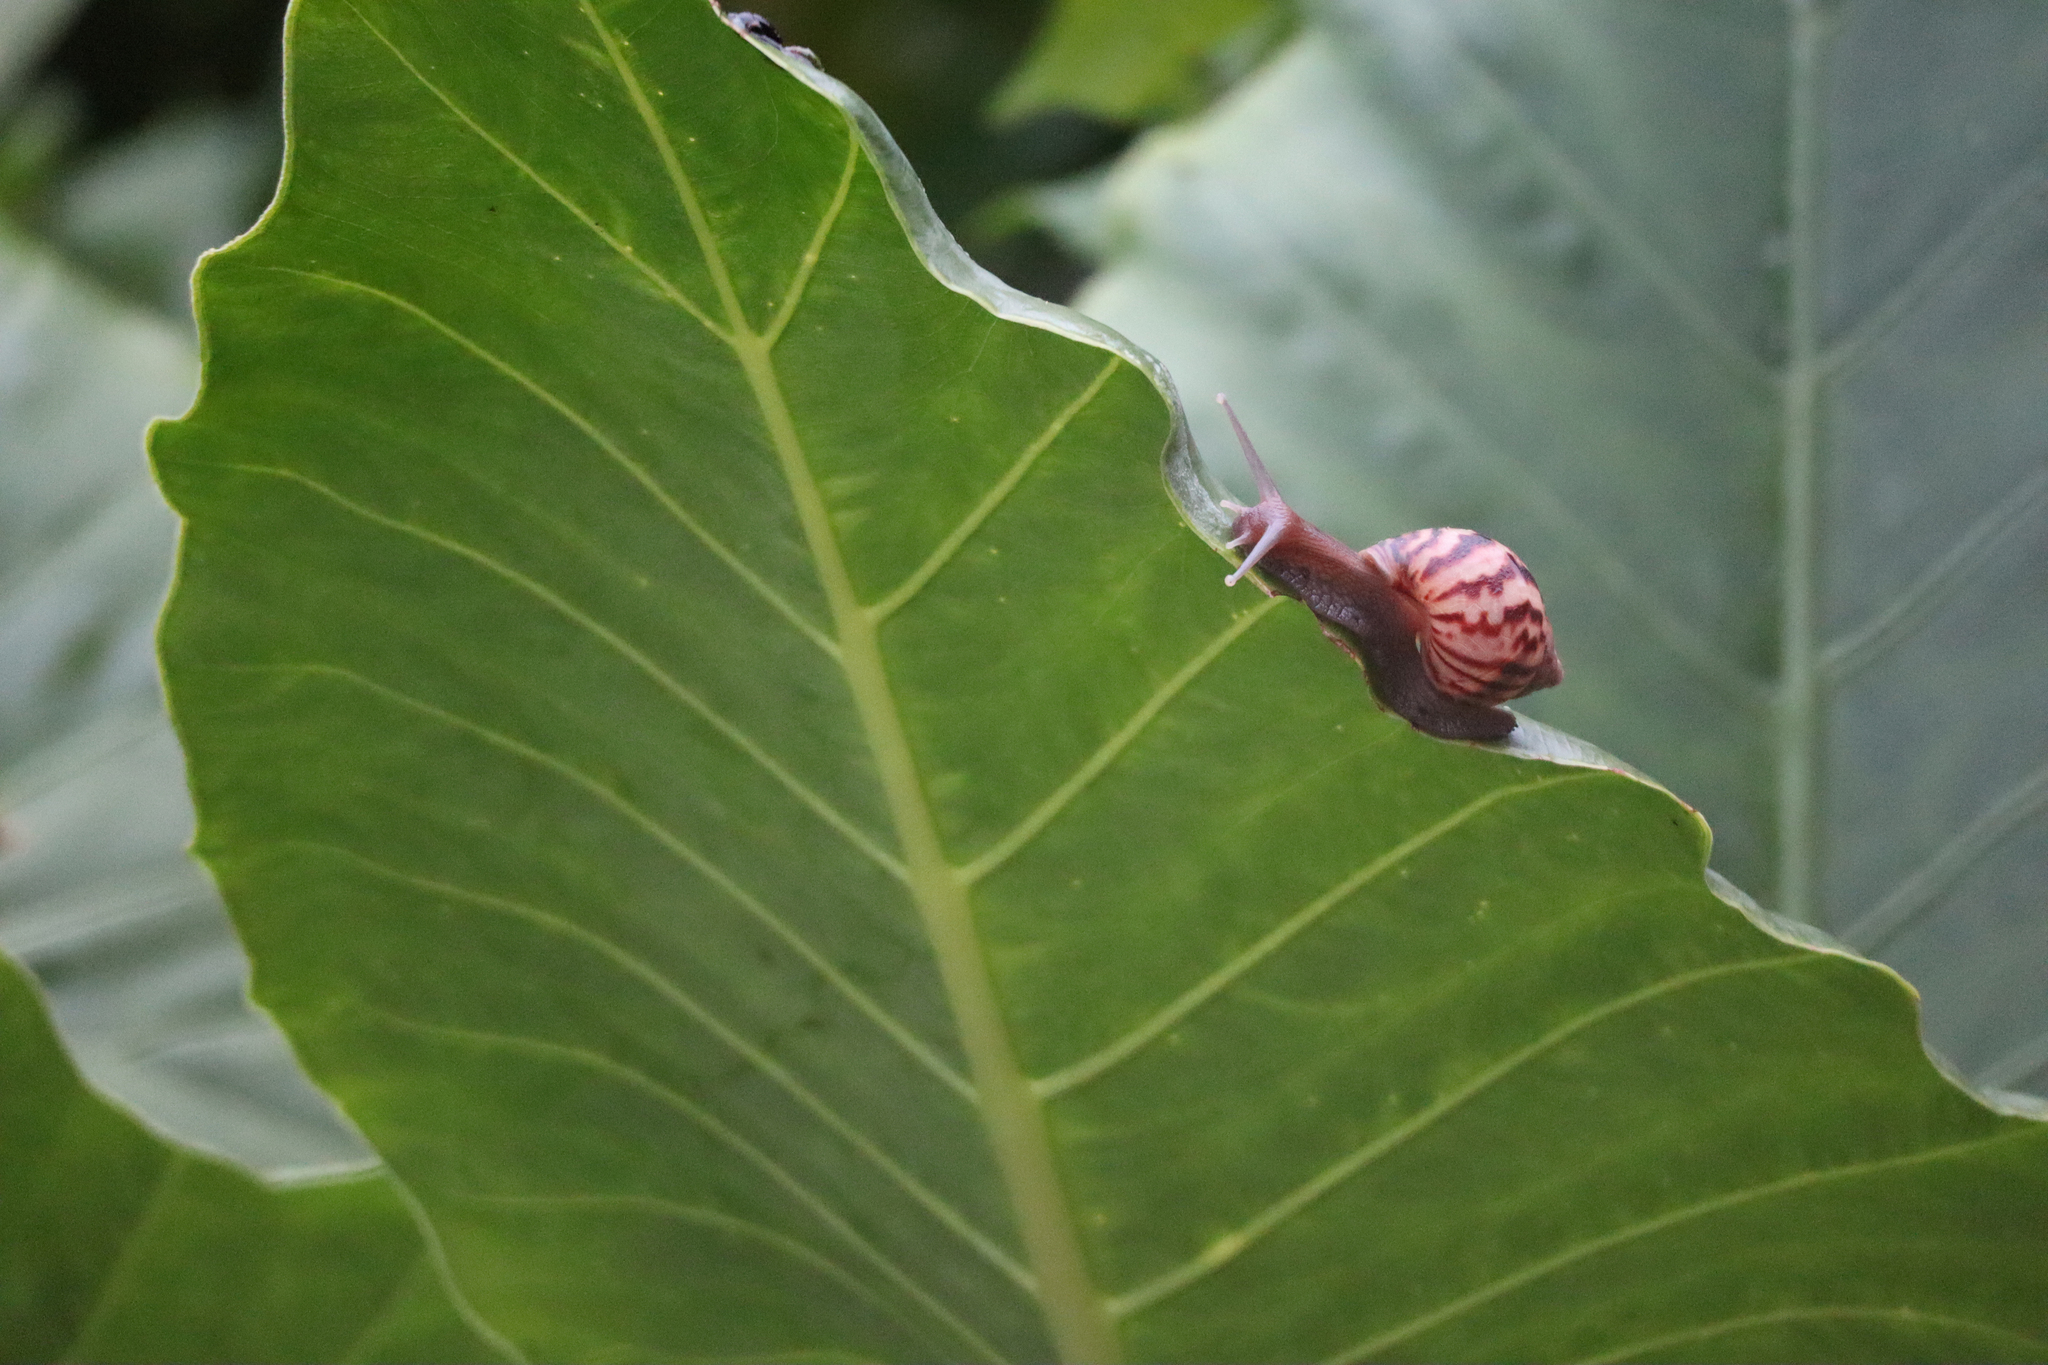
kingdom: Animalia
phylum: Mollusca
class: Gastropoda
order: Stylommatophora
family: Achatinidae
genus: Lissachatina
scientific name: Lissachatina fulica
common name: Giant african snail
